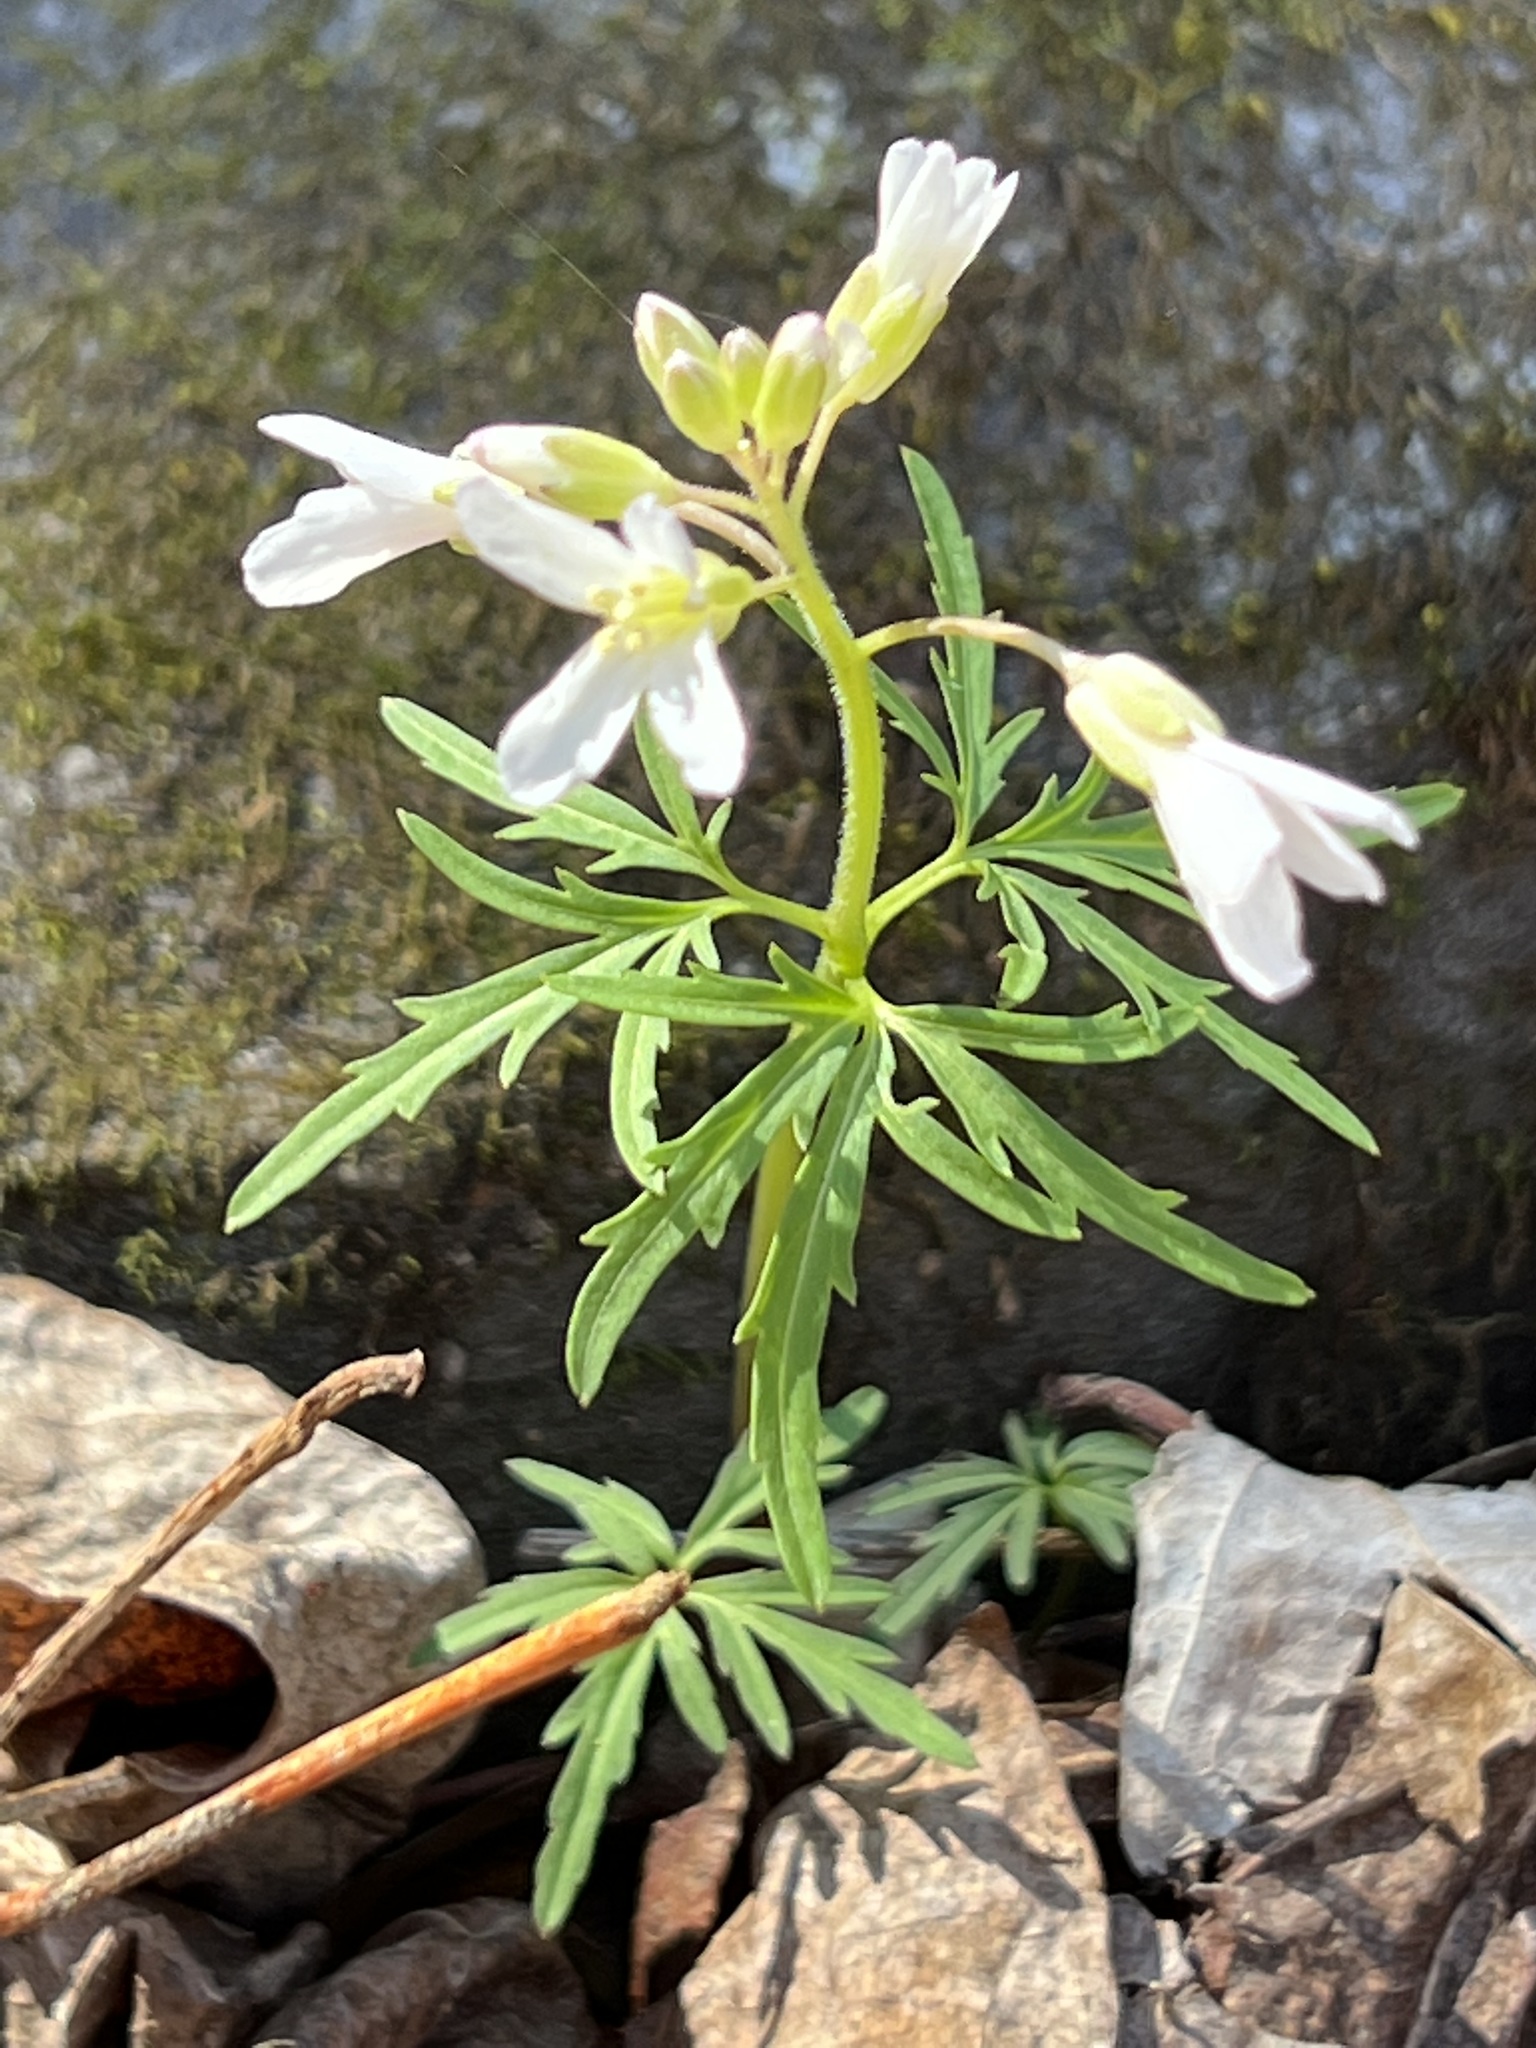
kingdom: Plantae
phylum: Tracheophyta
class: Magnoliopsida
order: Brassicales
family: Brassicaceae
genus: Cardamine
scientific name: Cardamine concatenata
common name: Cut-leaf toothcup
